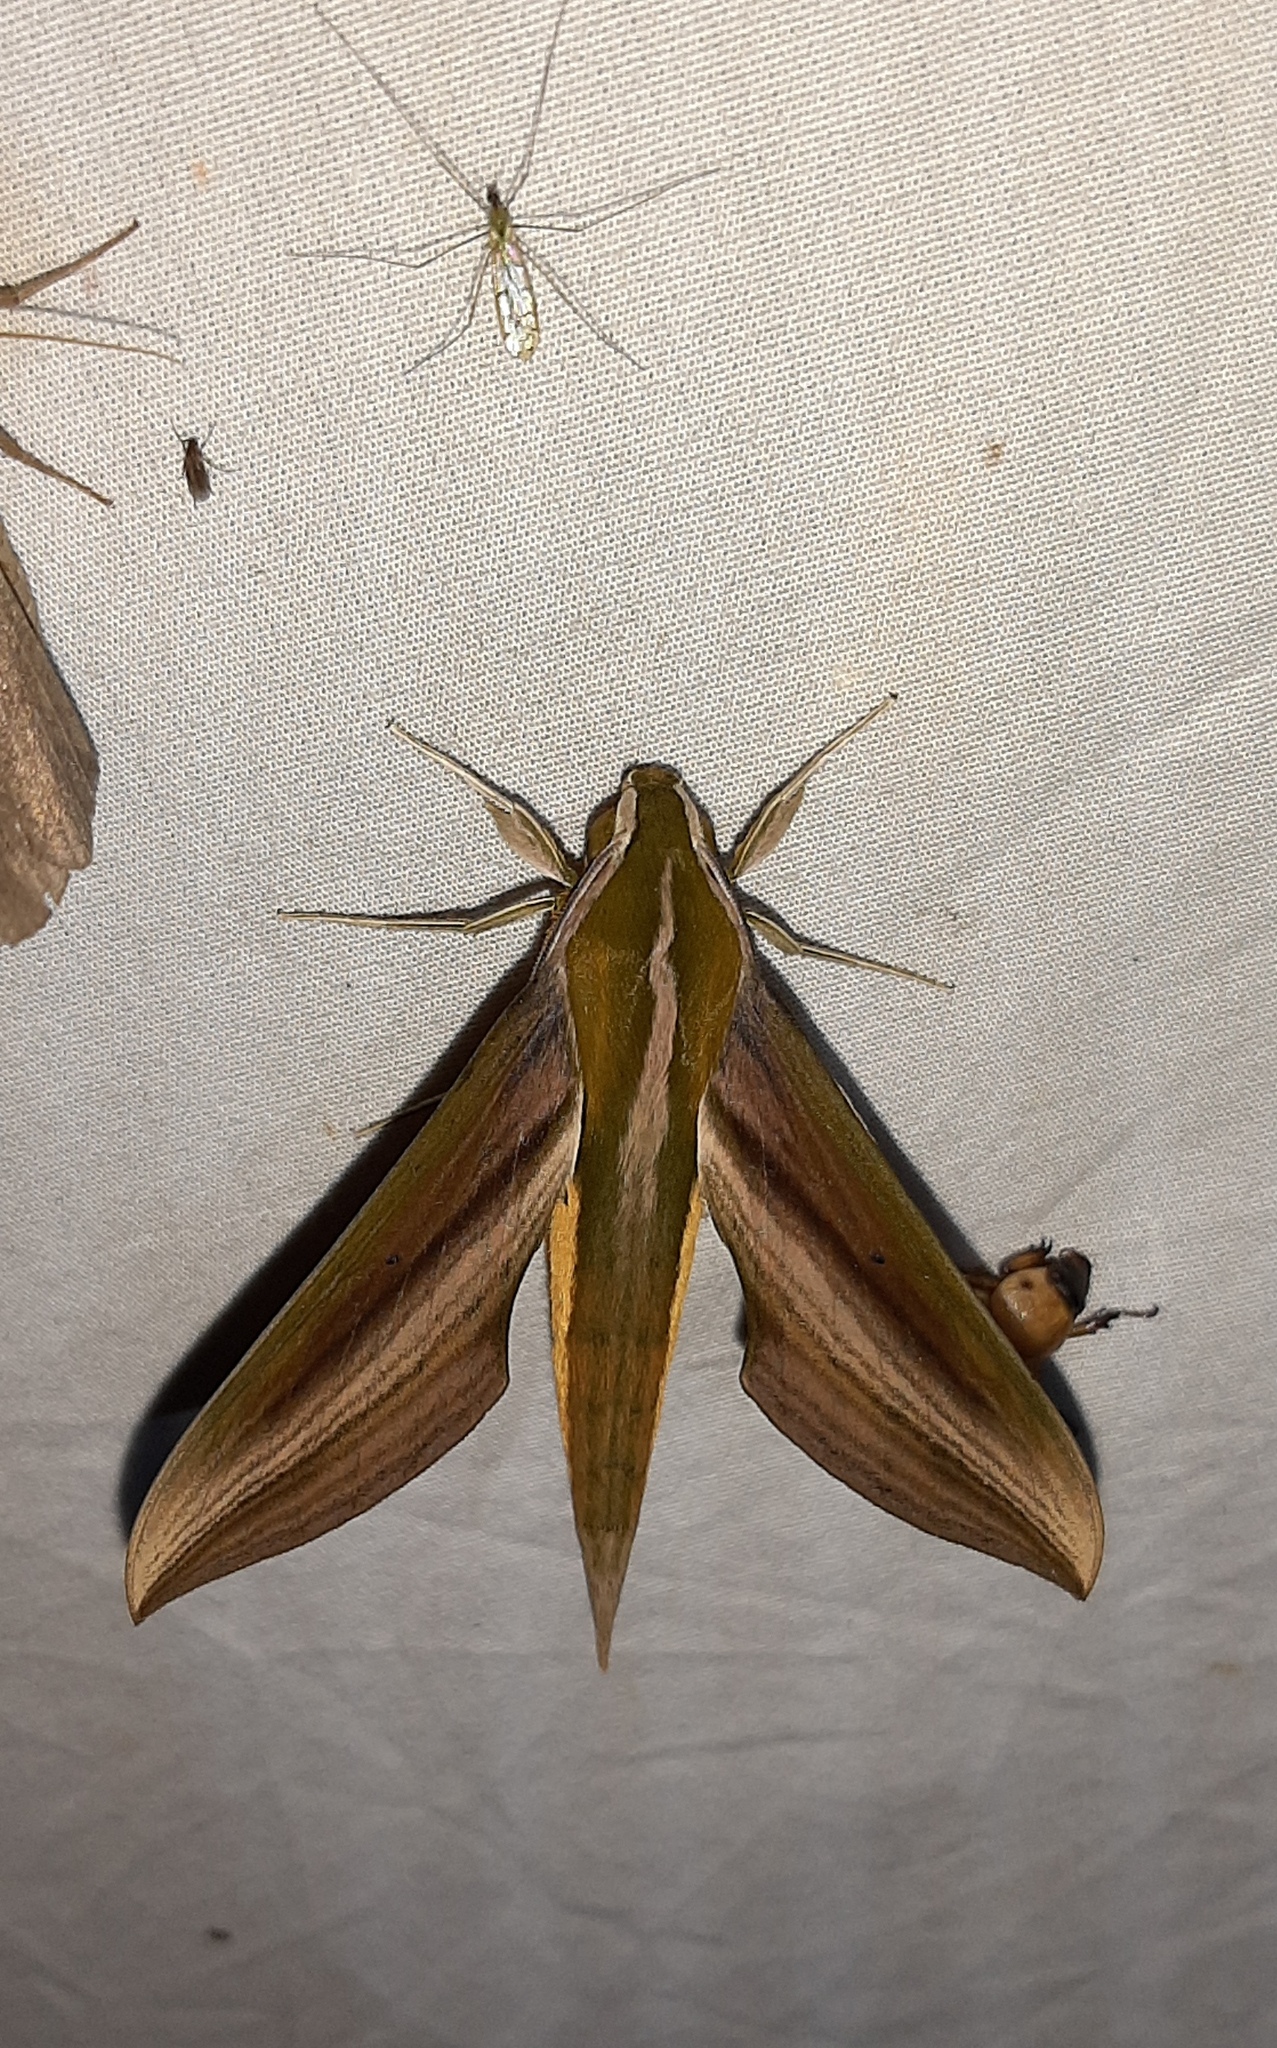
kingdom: Animalia
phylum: Arthropoda
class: Insecta
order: Lepidoptera
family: Sphingidae
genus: Xylophanes
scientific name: Xylophanes resta
